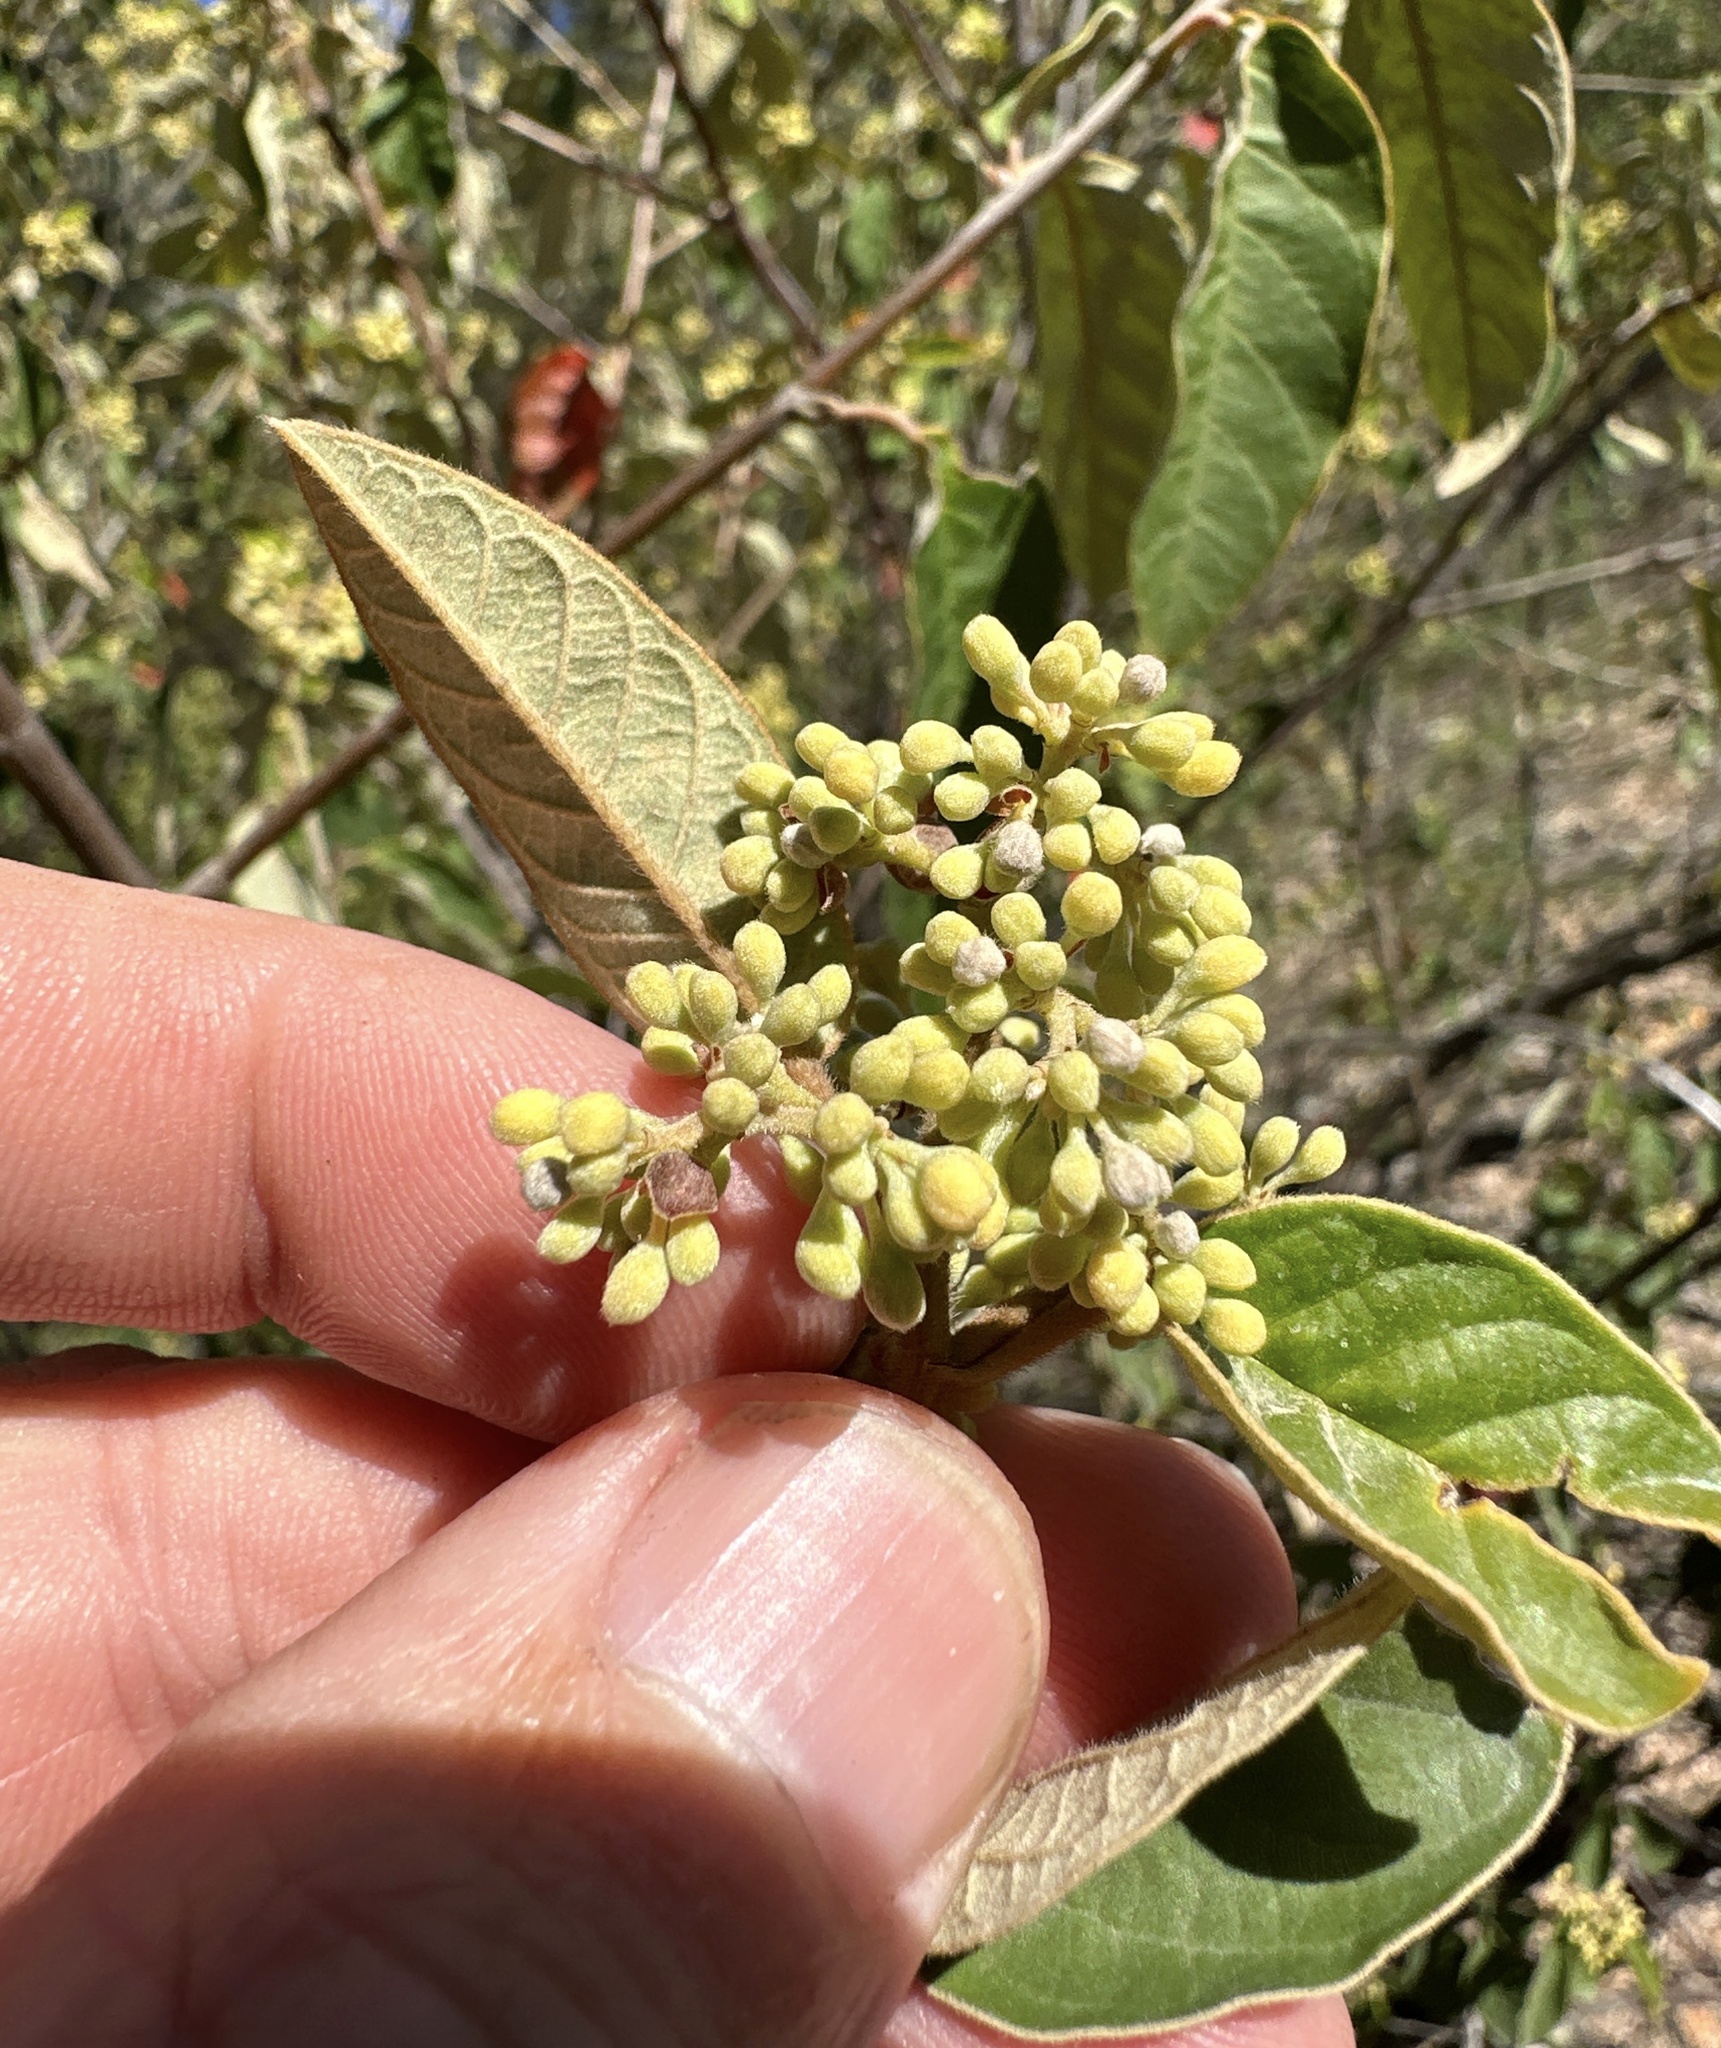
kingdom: Plantae
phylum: Tracheophyta
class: Magnoliopsida
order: Rosales
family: Rhamnaceae
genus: Pomaderris
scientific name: Pomaderris queenslandica
